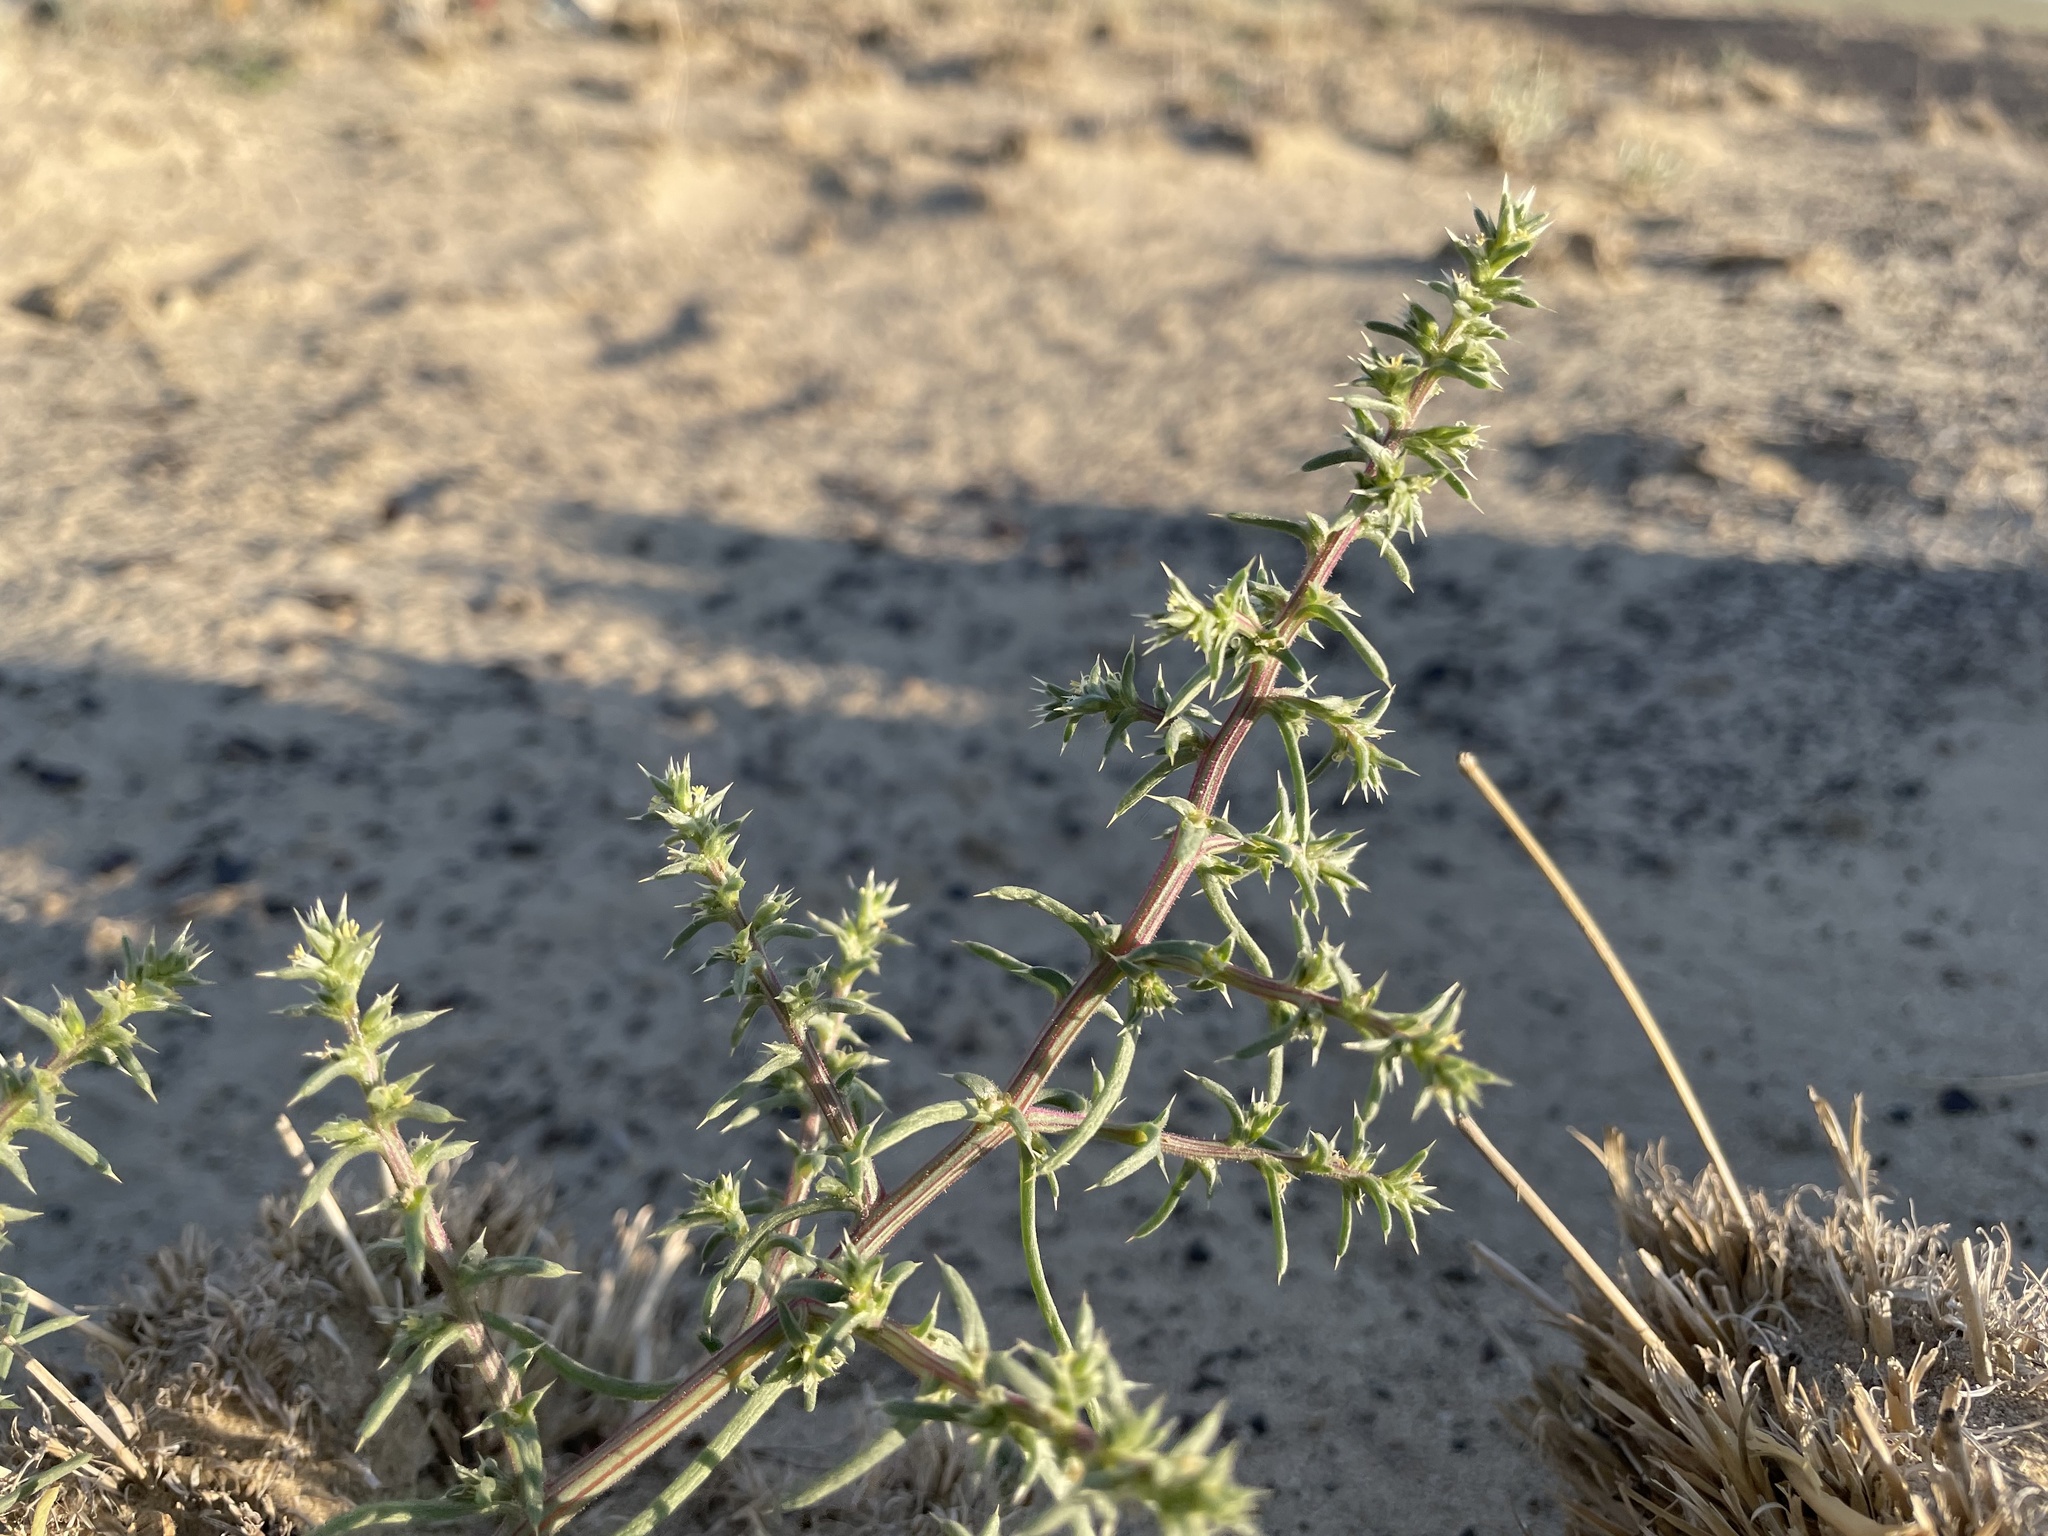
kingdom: Plantae
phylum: Tracheophyta
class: Magnoliopsida
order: Caryophyllales
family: Amaranthaceae
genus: Salsola
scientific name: Salsola tragus
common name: Prickly russian thistle
